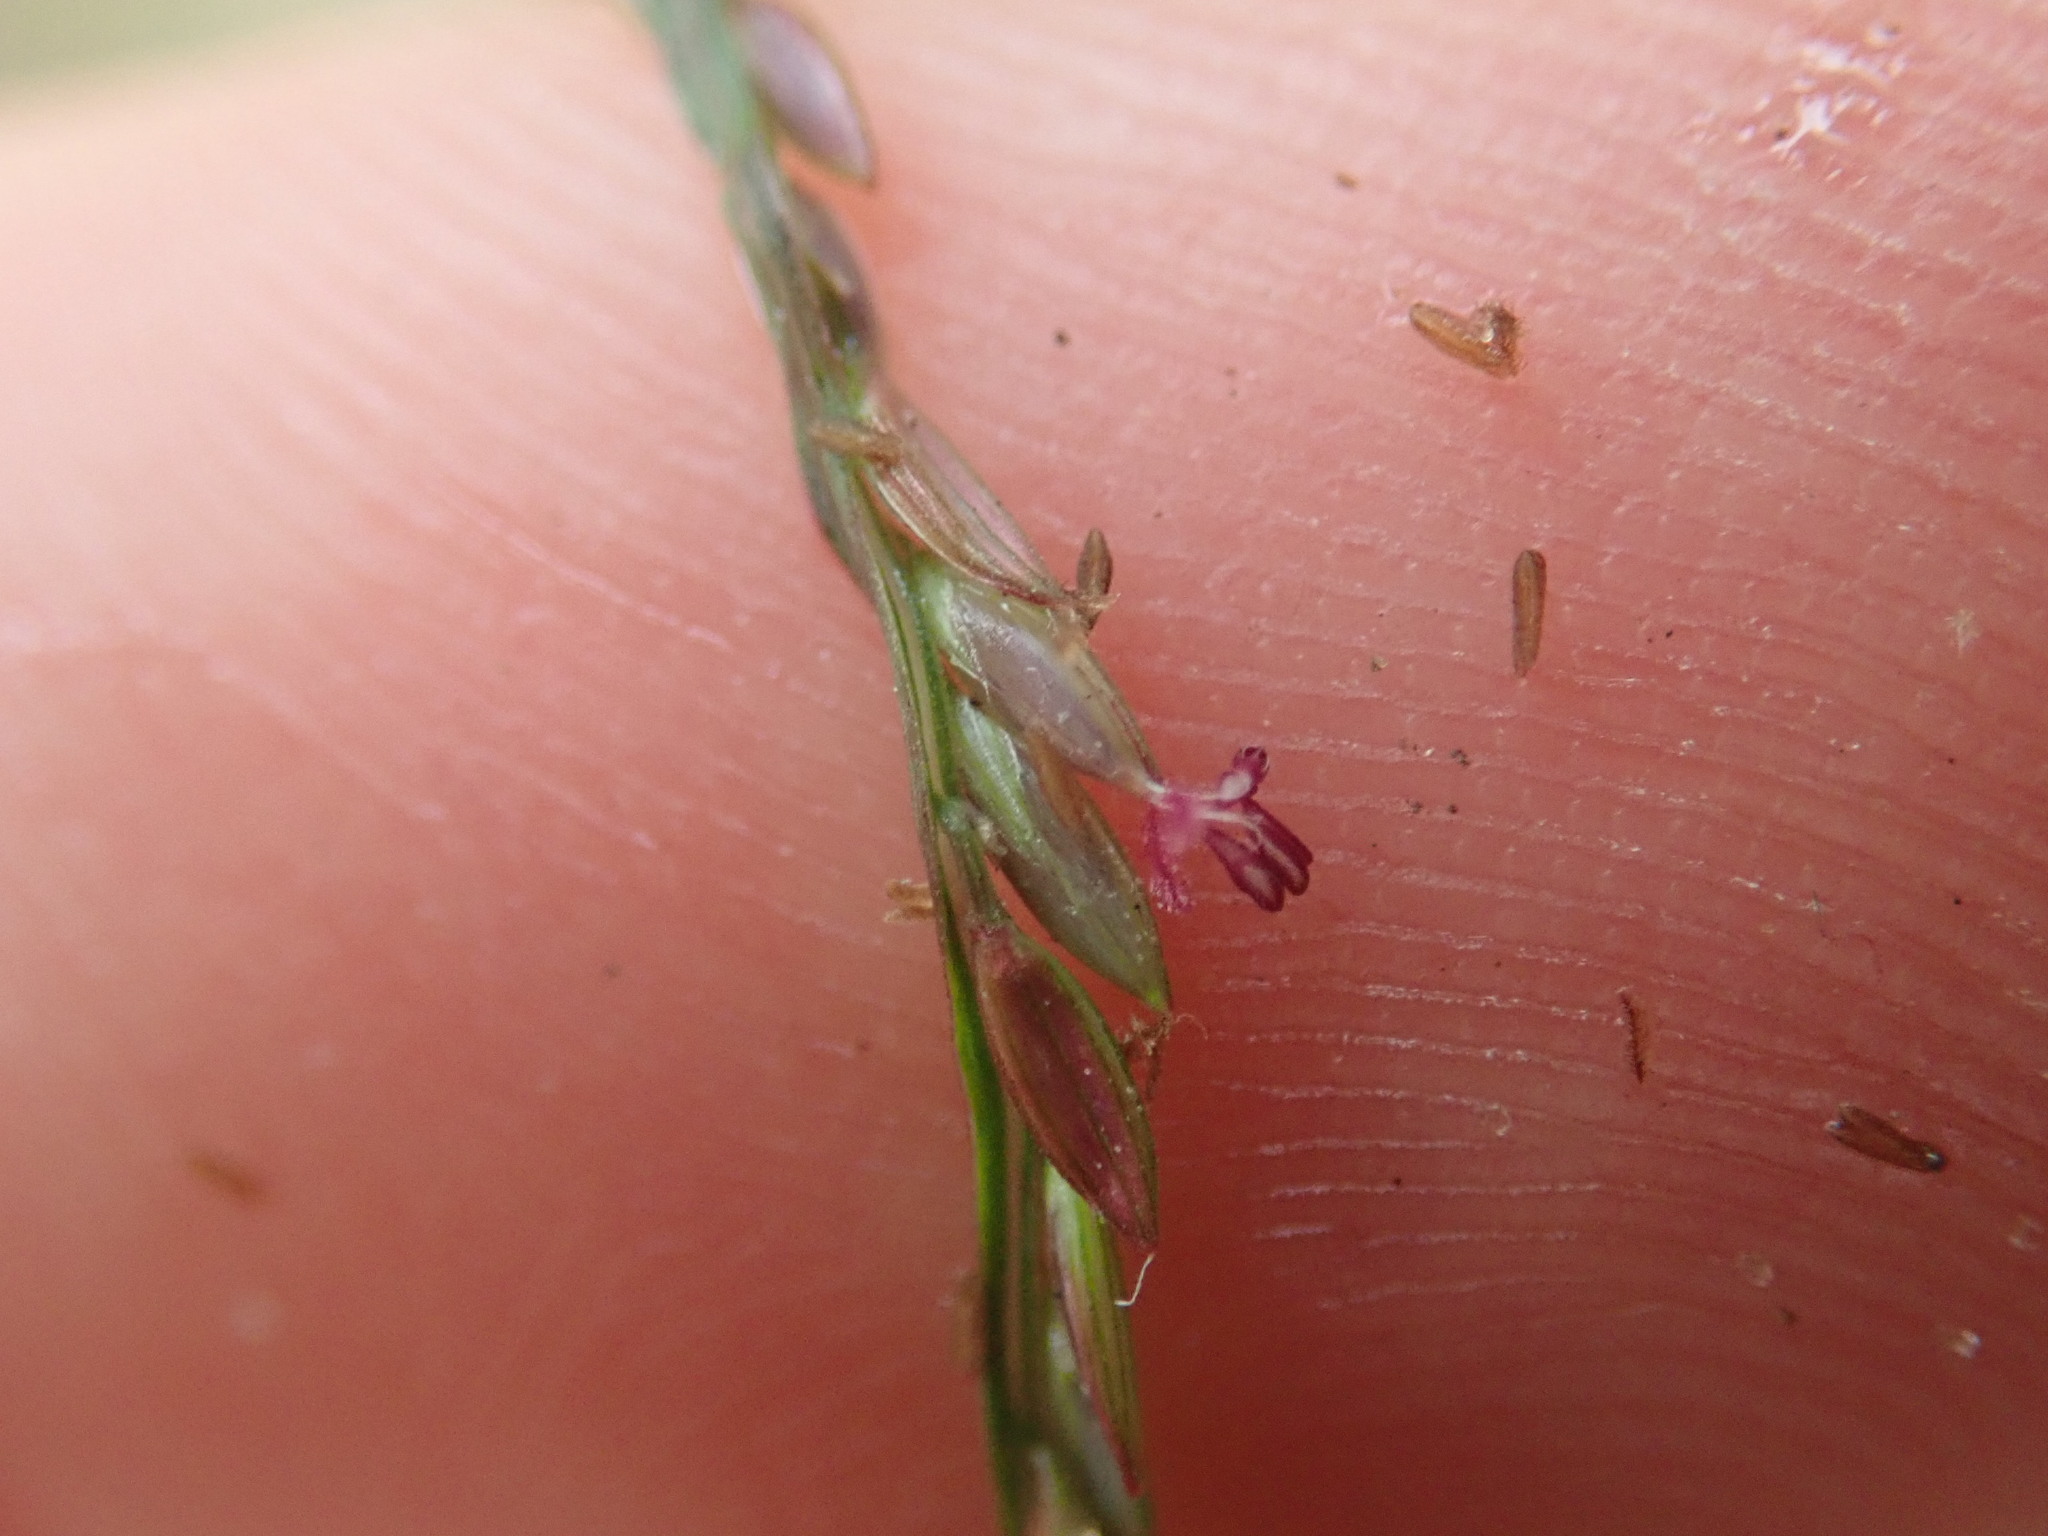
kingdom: Plantae
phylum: Tracheophyta
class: Liliopsida
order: Poales
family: Poaceae
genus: Digitaria
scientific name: Digitaria sanguinalis
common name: Hairy crabgrass
